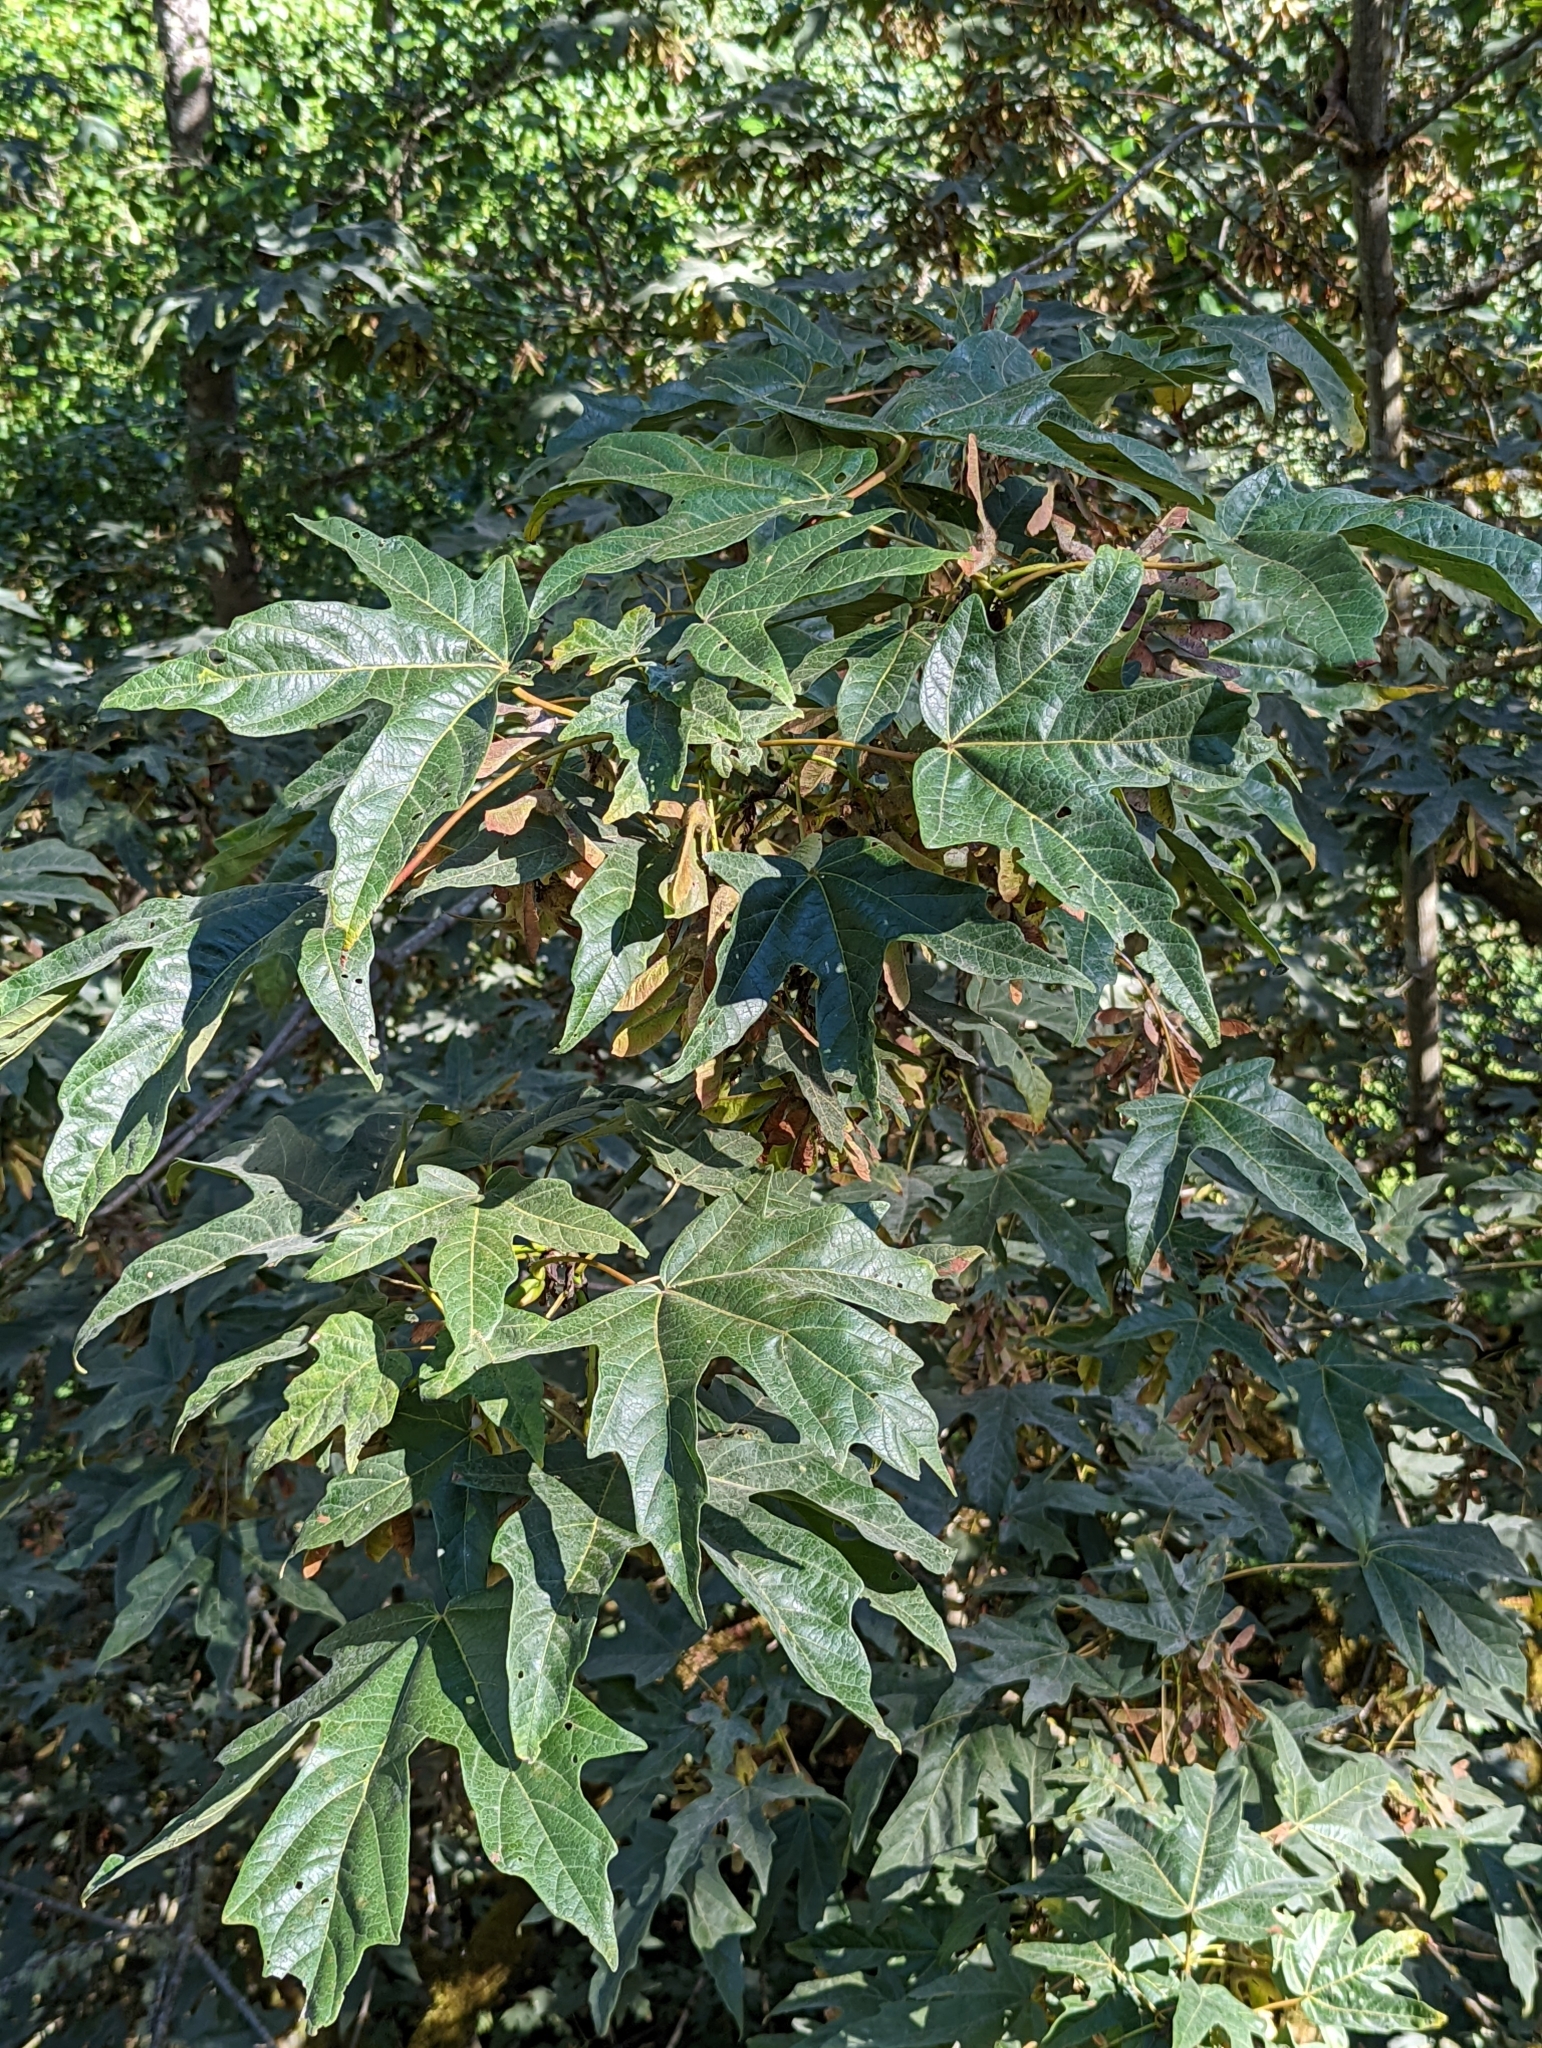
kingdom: Plantae
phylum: Tracheophyta
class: Magnoliopsida
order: Sapindales
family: Sapindaceae
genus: Acer
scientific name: Acer macrophyllum
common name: Oregon maple
